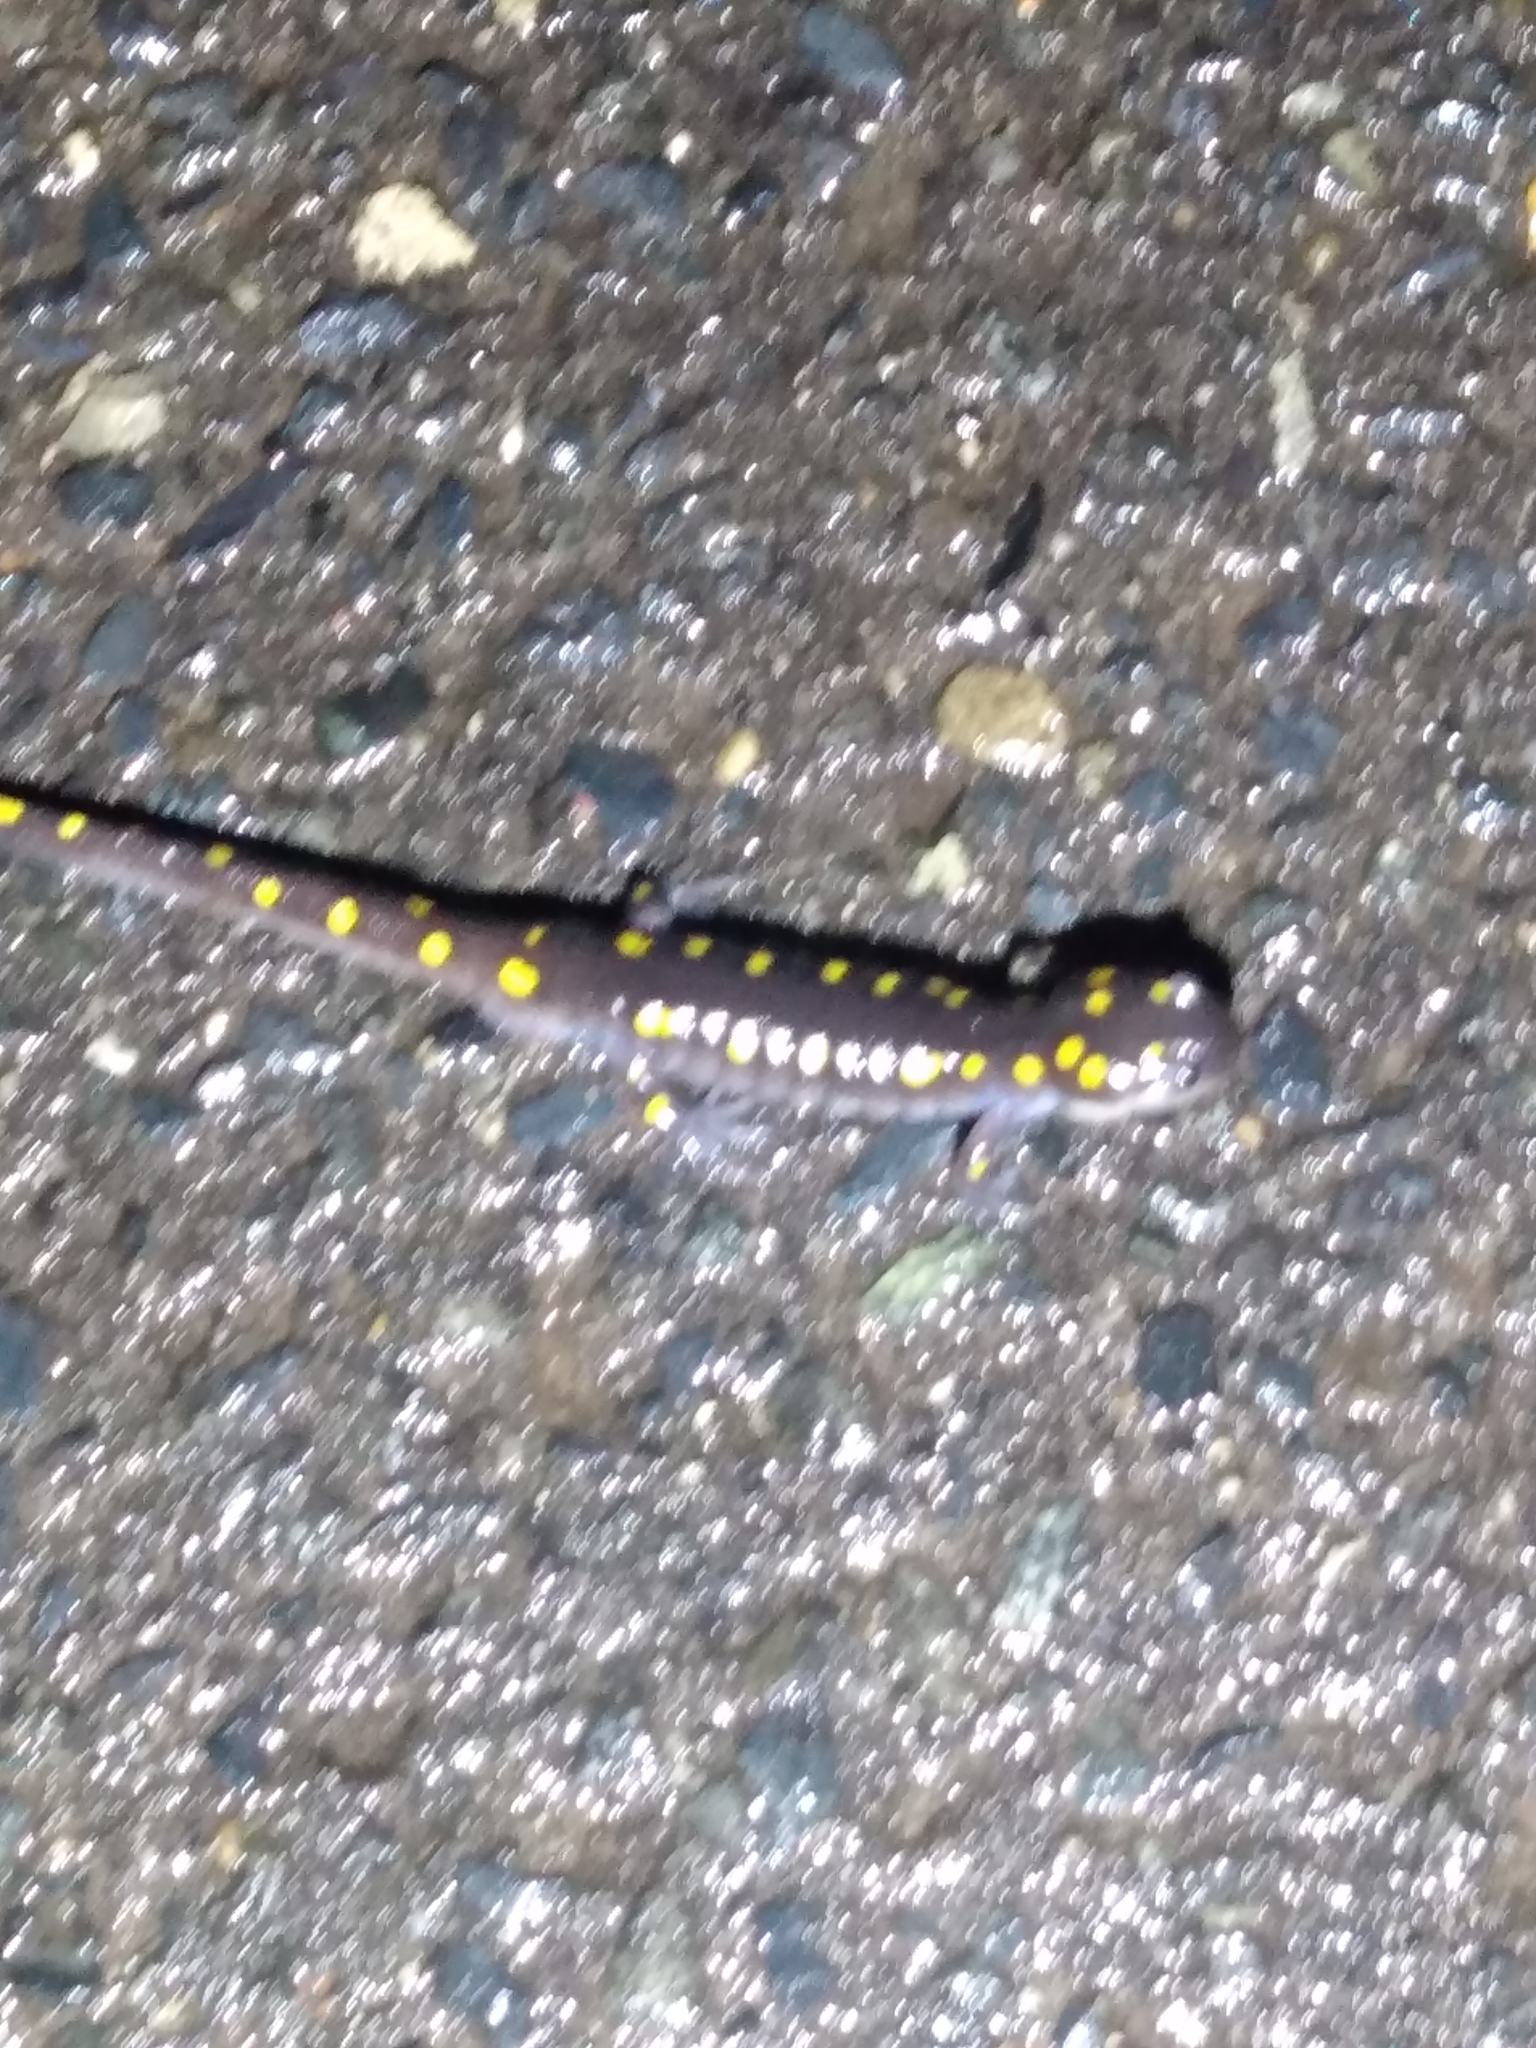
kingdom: Animalia
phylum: Chordata
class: Amphibia
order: Caudata
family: Ambystomatidae
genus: Ambystoma
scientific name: Ambystoma maculatum
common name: Spotted salamander
